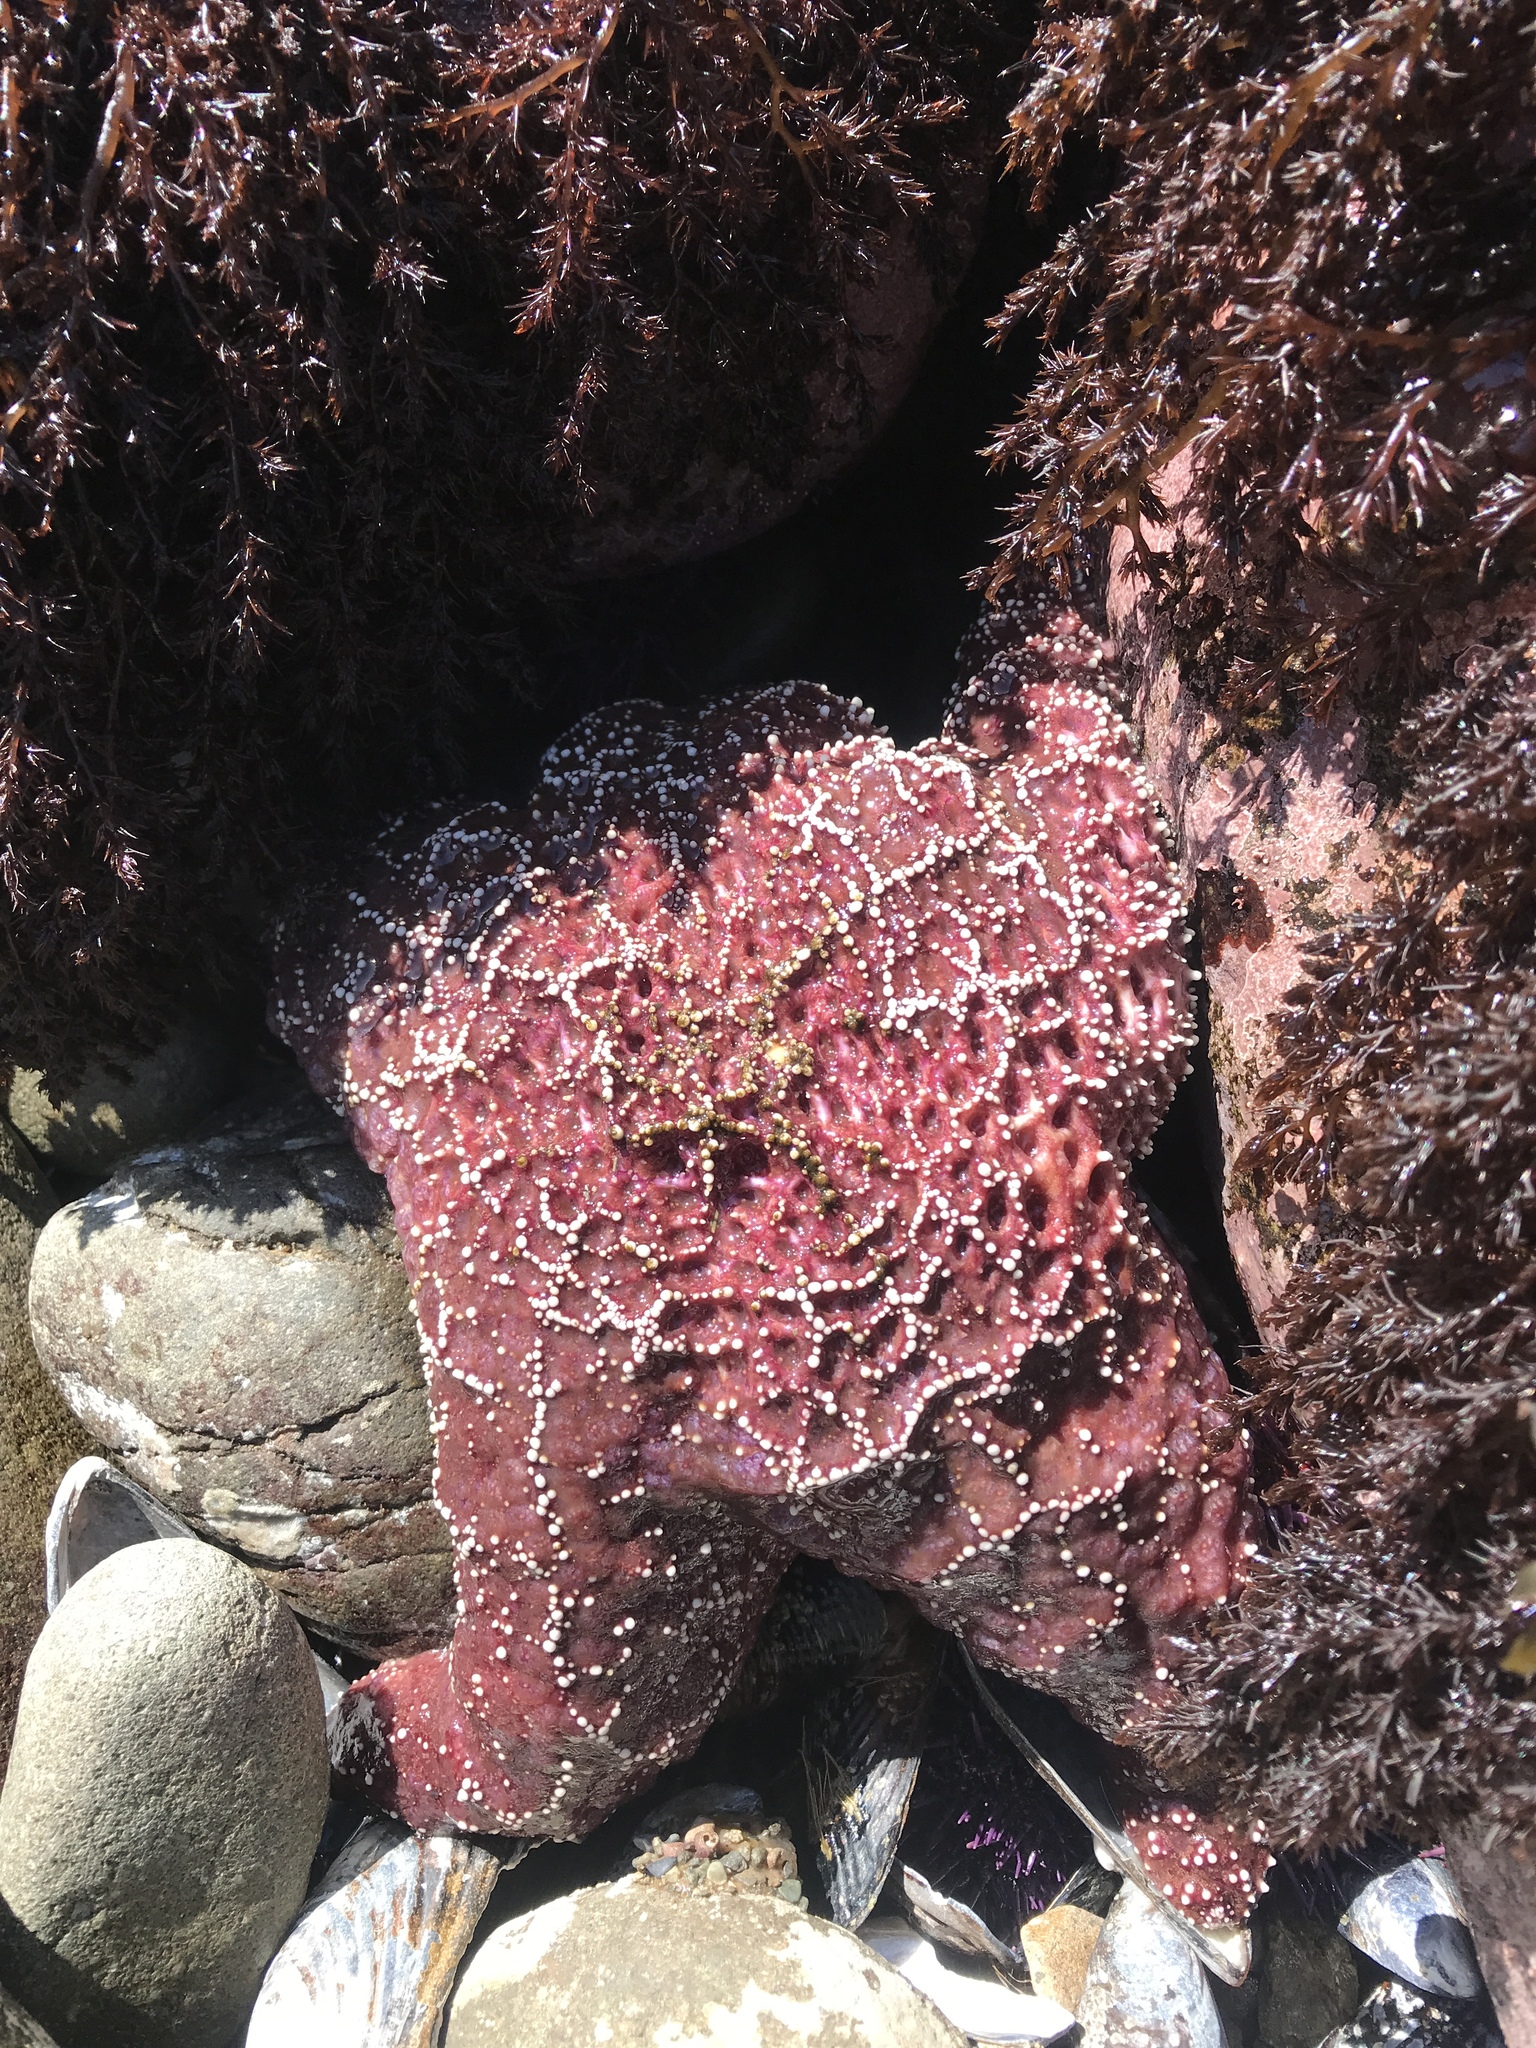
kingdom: Animalia
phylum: Echinodermata
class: Asteroidea
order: Forcipulatida
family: Asteriidae
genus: Pisaster
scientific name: Pisaster ochraceus
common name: Ochre stars
